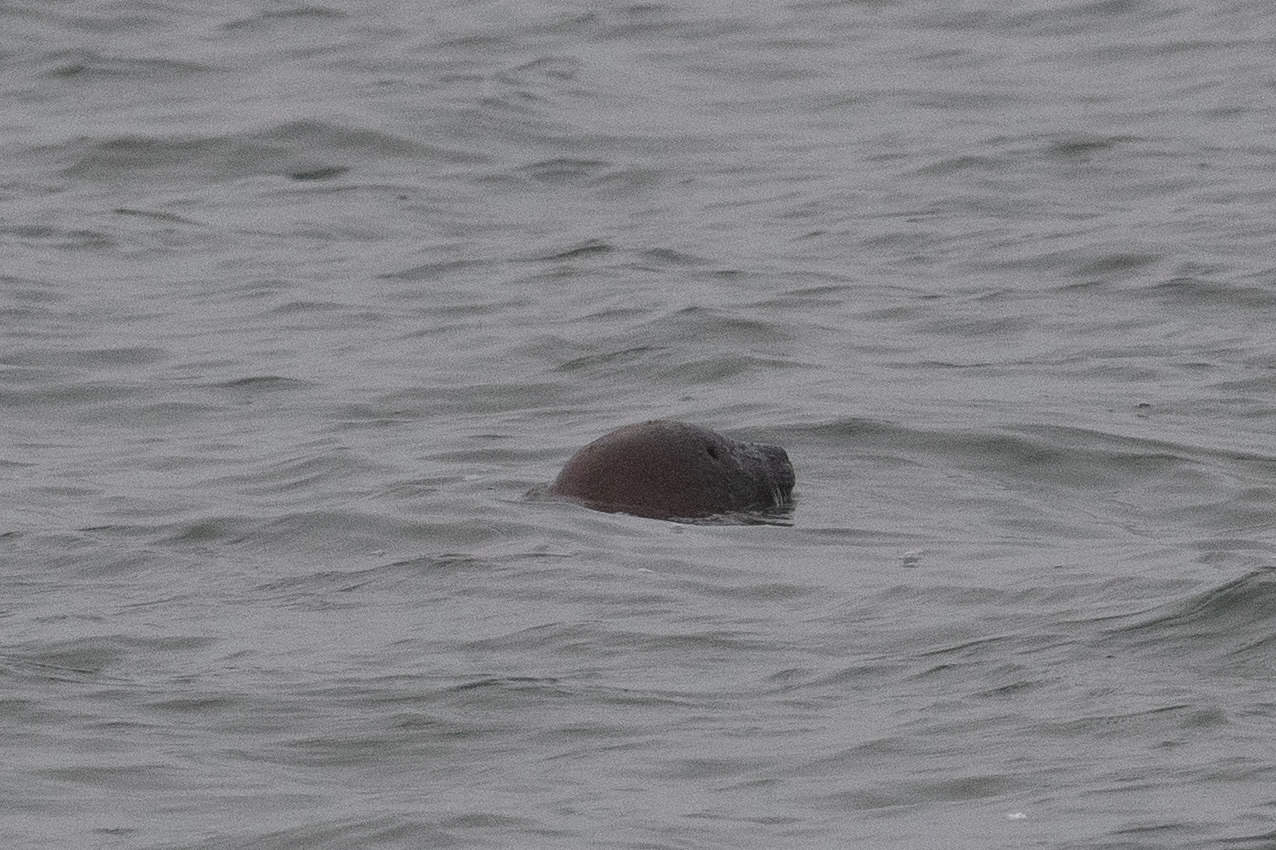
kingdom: Animalia
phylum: Chordata
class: Mammalia
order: Carnivora
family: Phocidae
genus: Phoca
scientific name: Phoca vitulina
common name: Harbor seal
